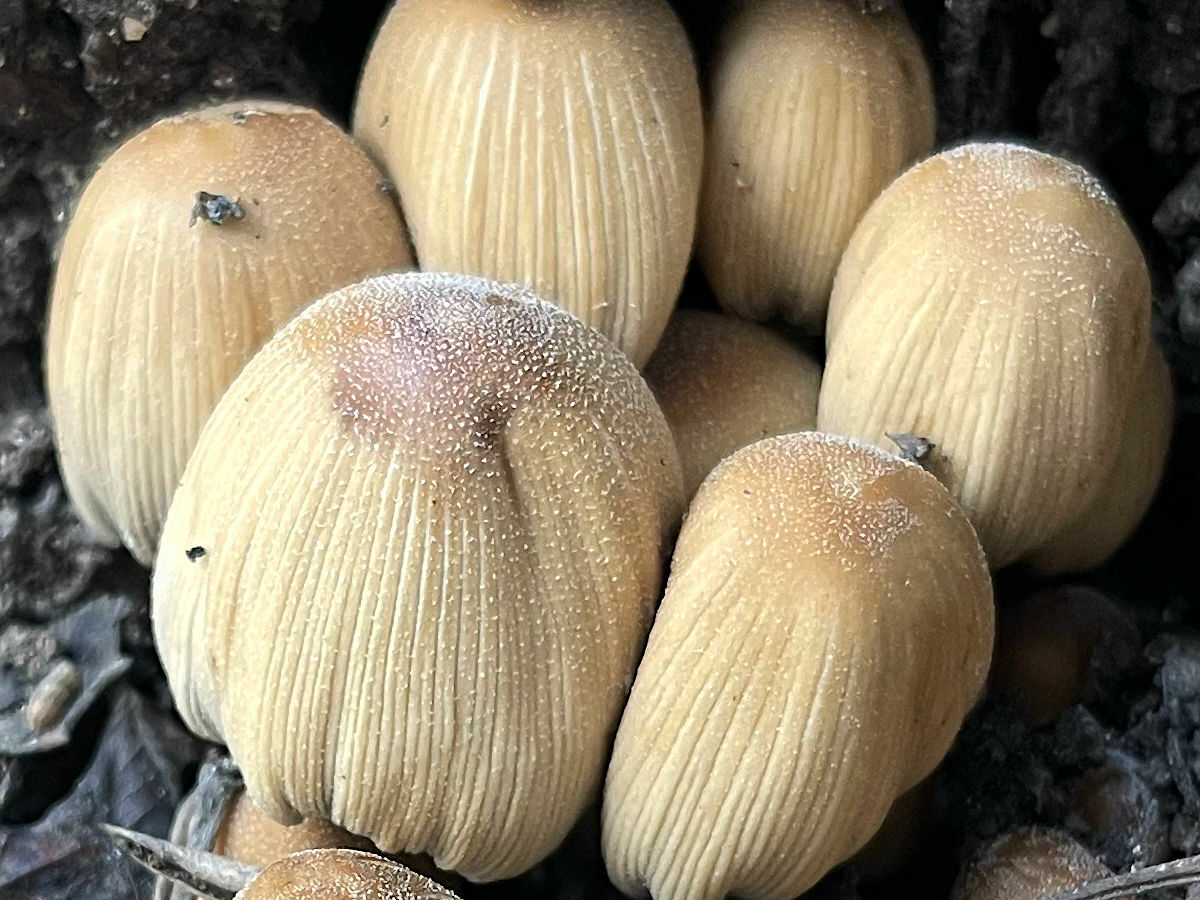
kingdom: Fungi
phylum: Basidiomycota
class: Agaricomycetes
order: Agaricales
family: Psathyrellaceae
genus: Coprinellus
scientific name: Coprinellus micaceus
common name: Glistening ink-cap
